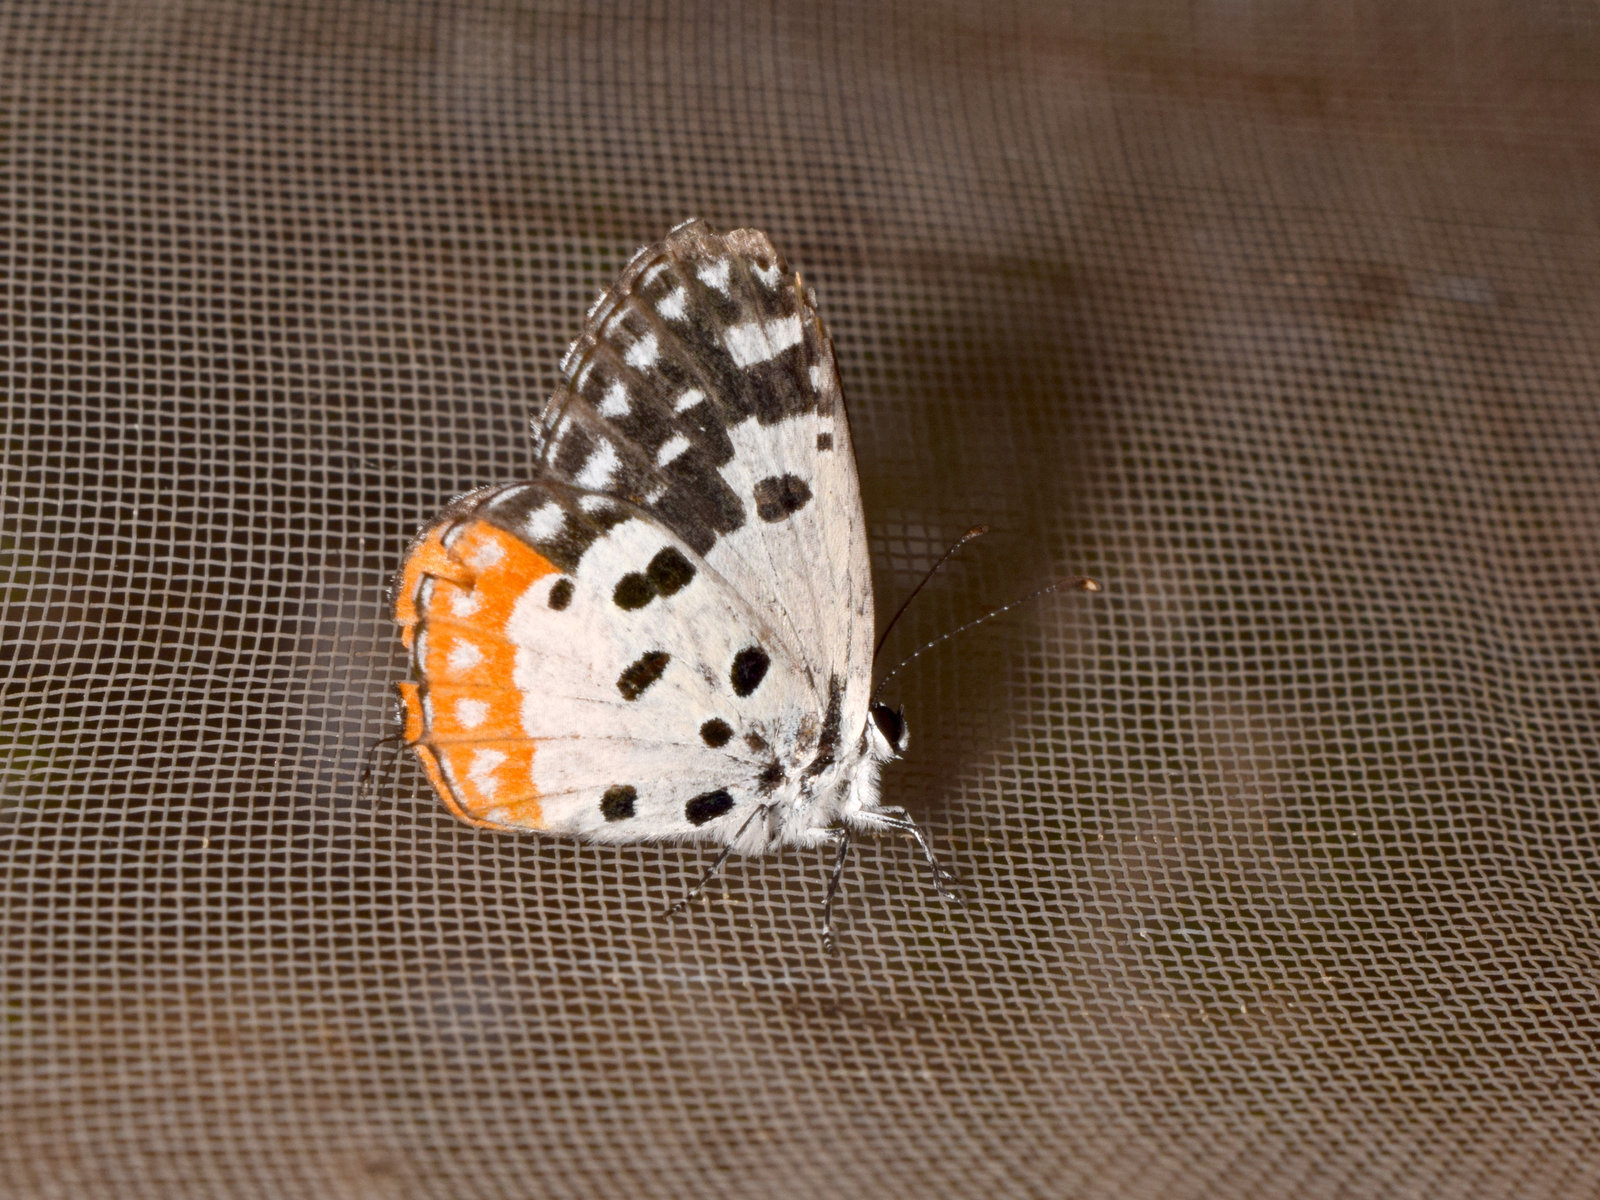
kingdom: Animalia
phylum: Arthropoda
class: Insecta
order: Lepidoptera
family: Lycaenidae
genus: Talicada
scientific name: Talicada nyseus
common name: Red pierrot
